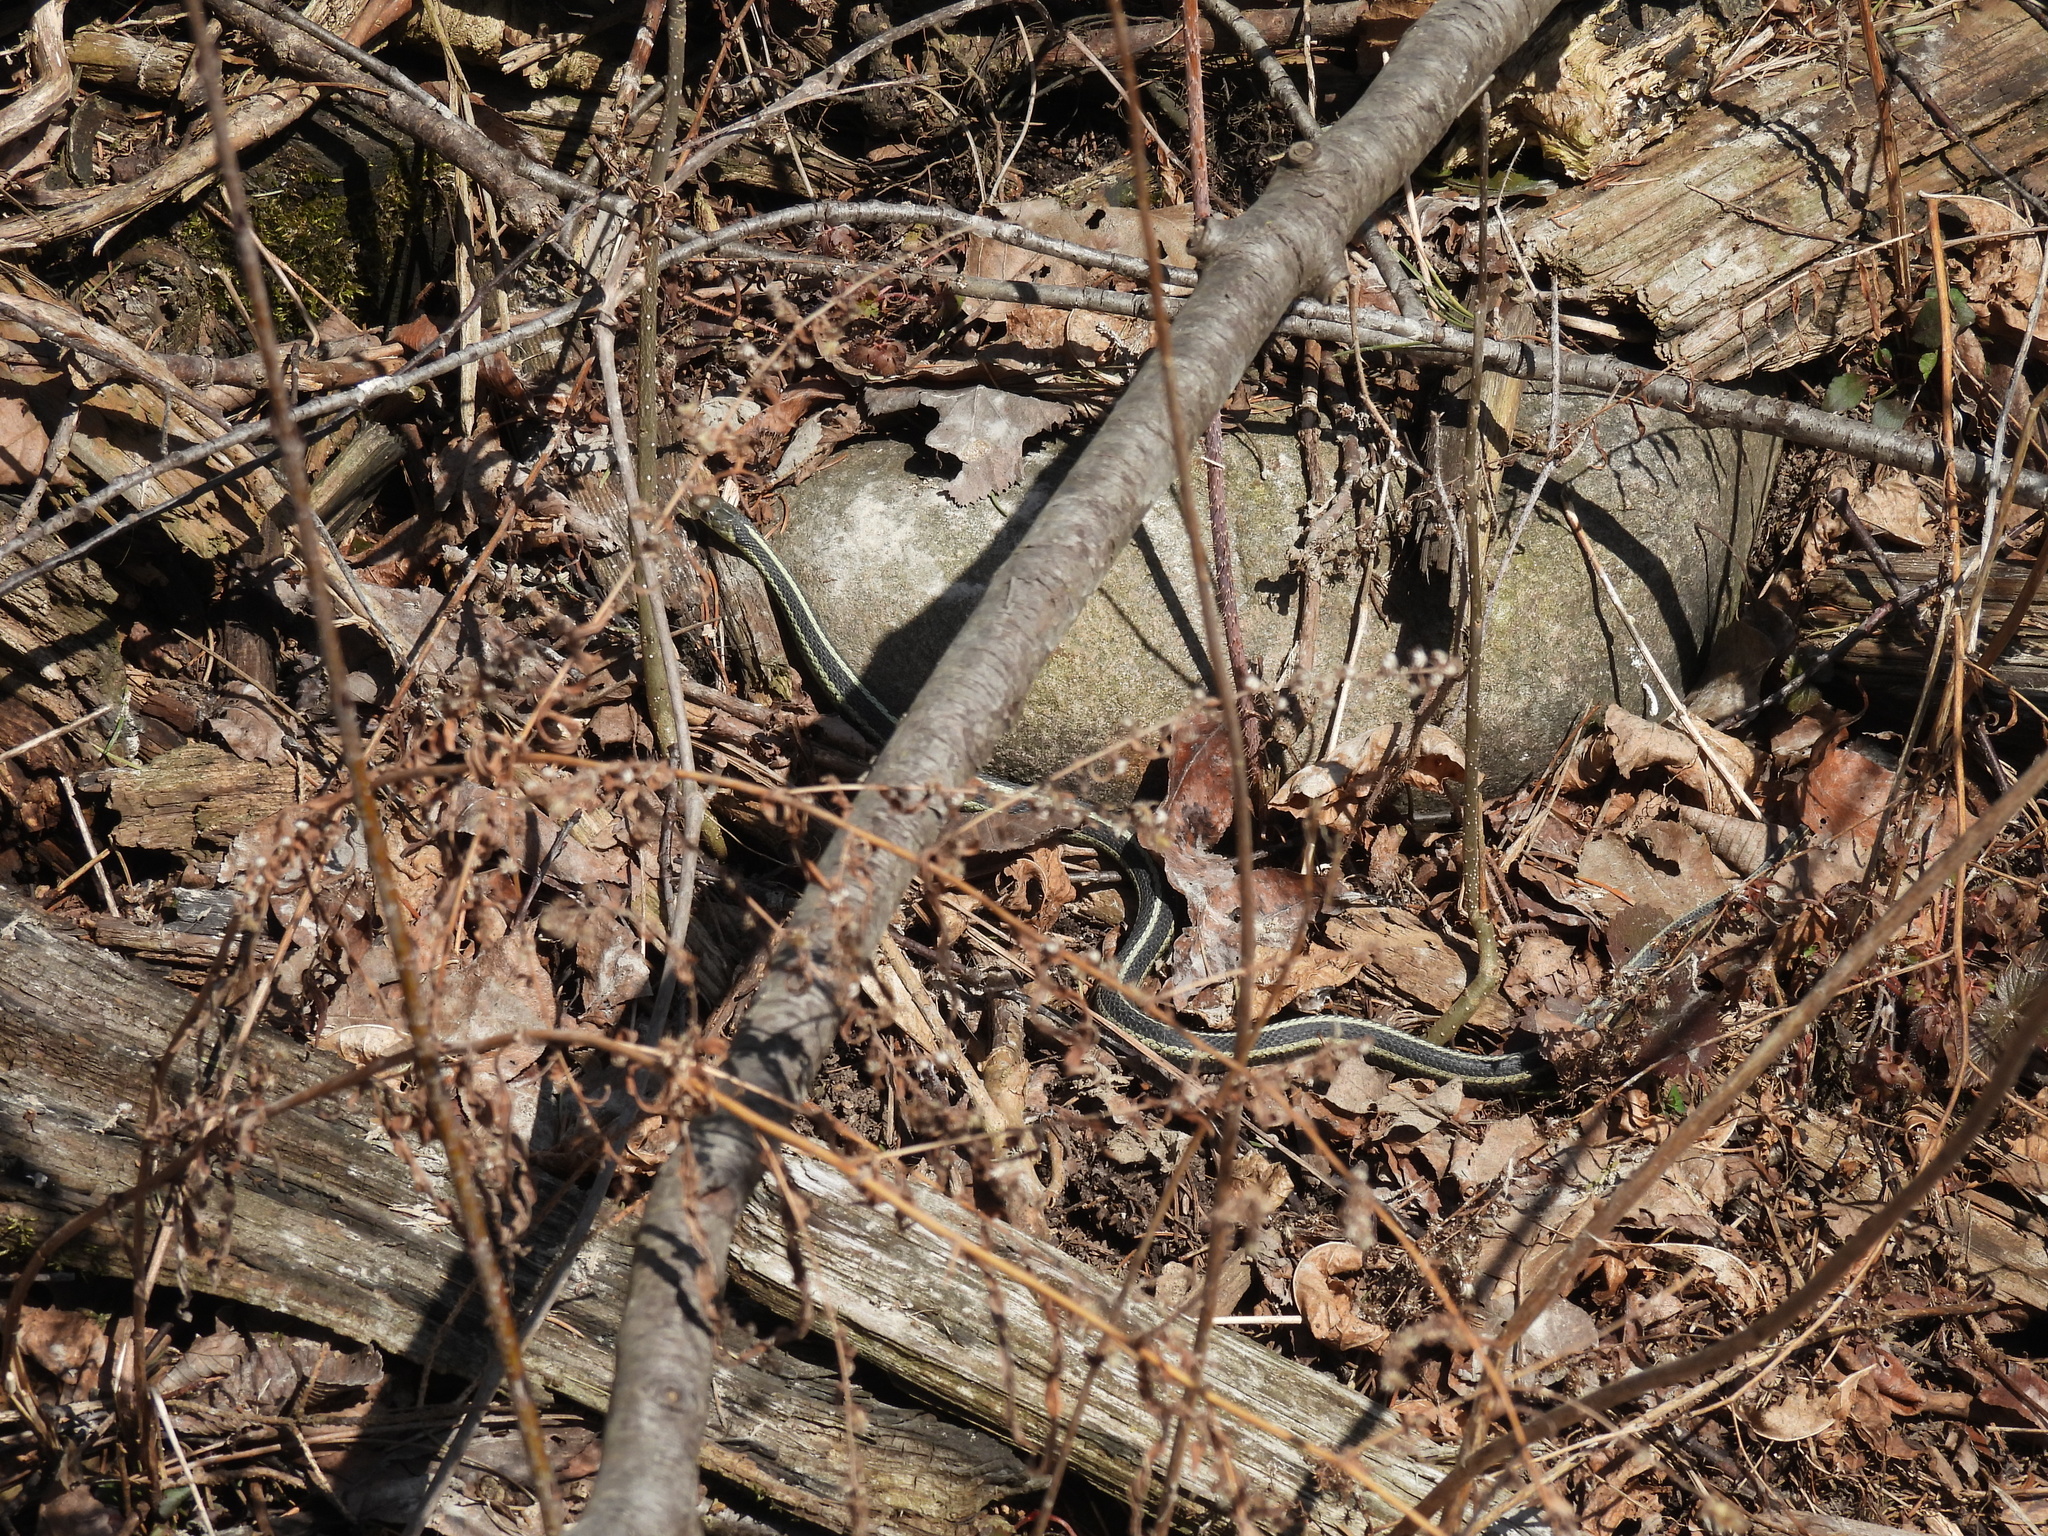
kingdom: Animalia
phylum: Chordata
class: Squamata
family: Colubridae
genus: Thamnophis
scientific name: Thamnophis sirtalis
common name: Common garter snake
